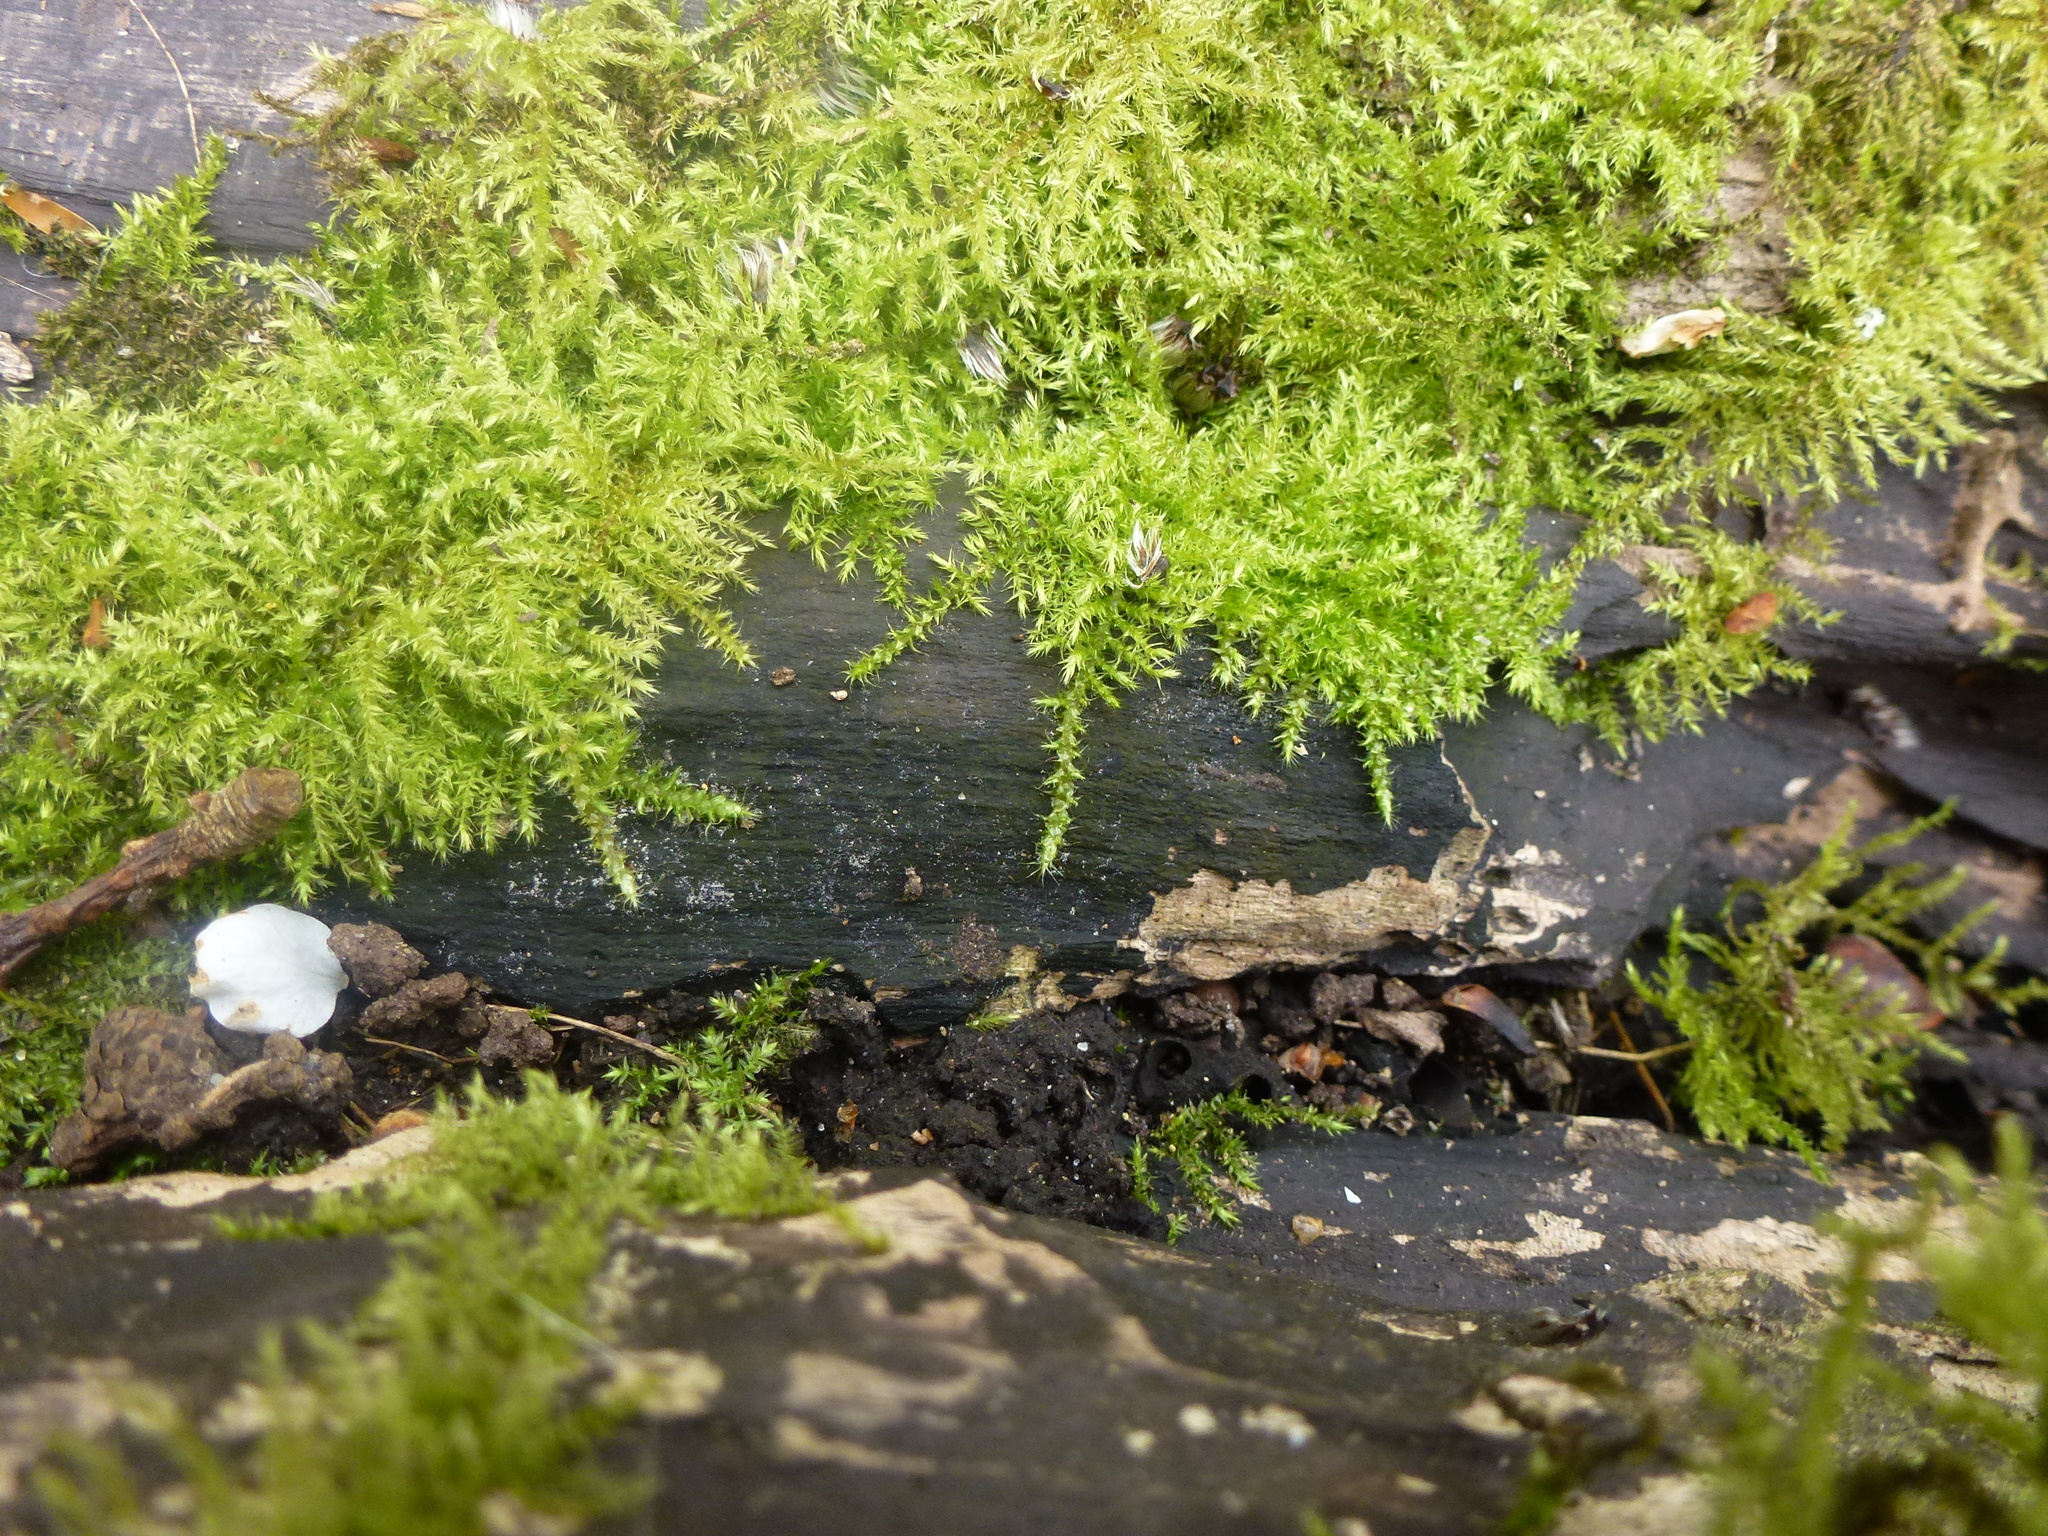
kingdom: Plantae
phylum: Bryophyta
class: Bryopsida
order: Hypnales
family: Brachytheciaceae
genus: Kindbergia
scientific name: Kindbergia praelonga
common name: Slender beaked moss
